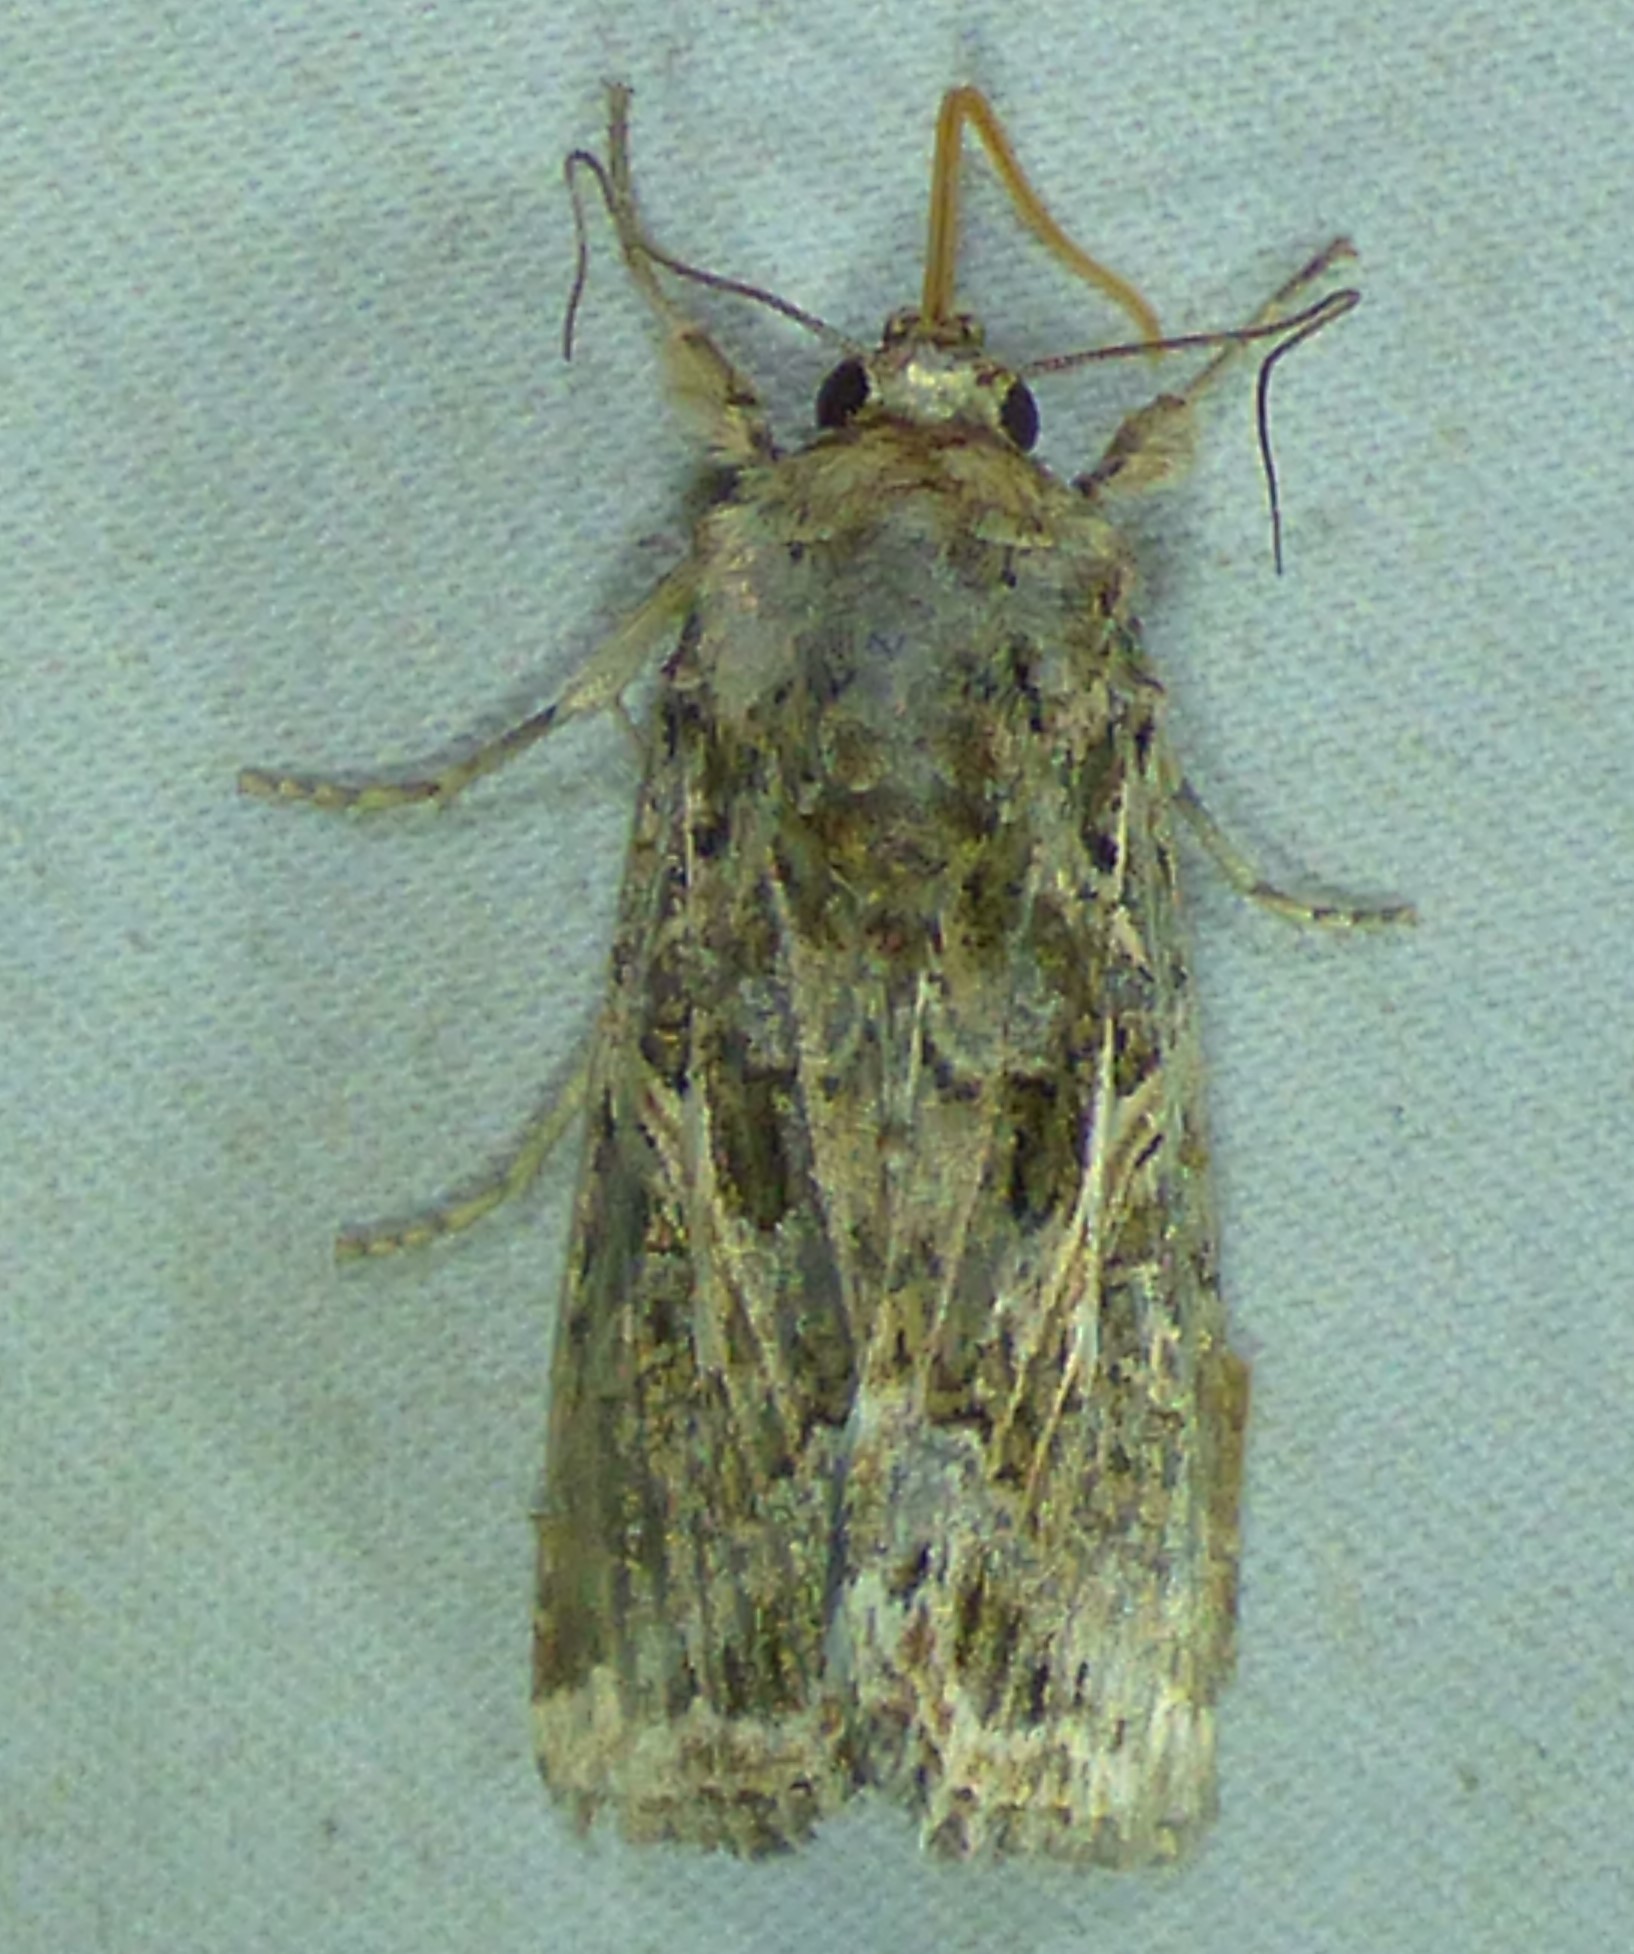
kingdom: Animalia
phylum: Arthropoda
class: Insecta
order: Lepidoptera
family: Noctuidae
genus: Spodoptera
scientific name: Spodoptera ornithogalli
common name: Yellow-striped armyworm
